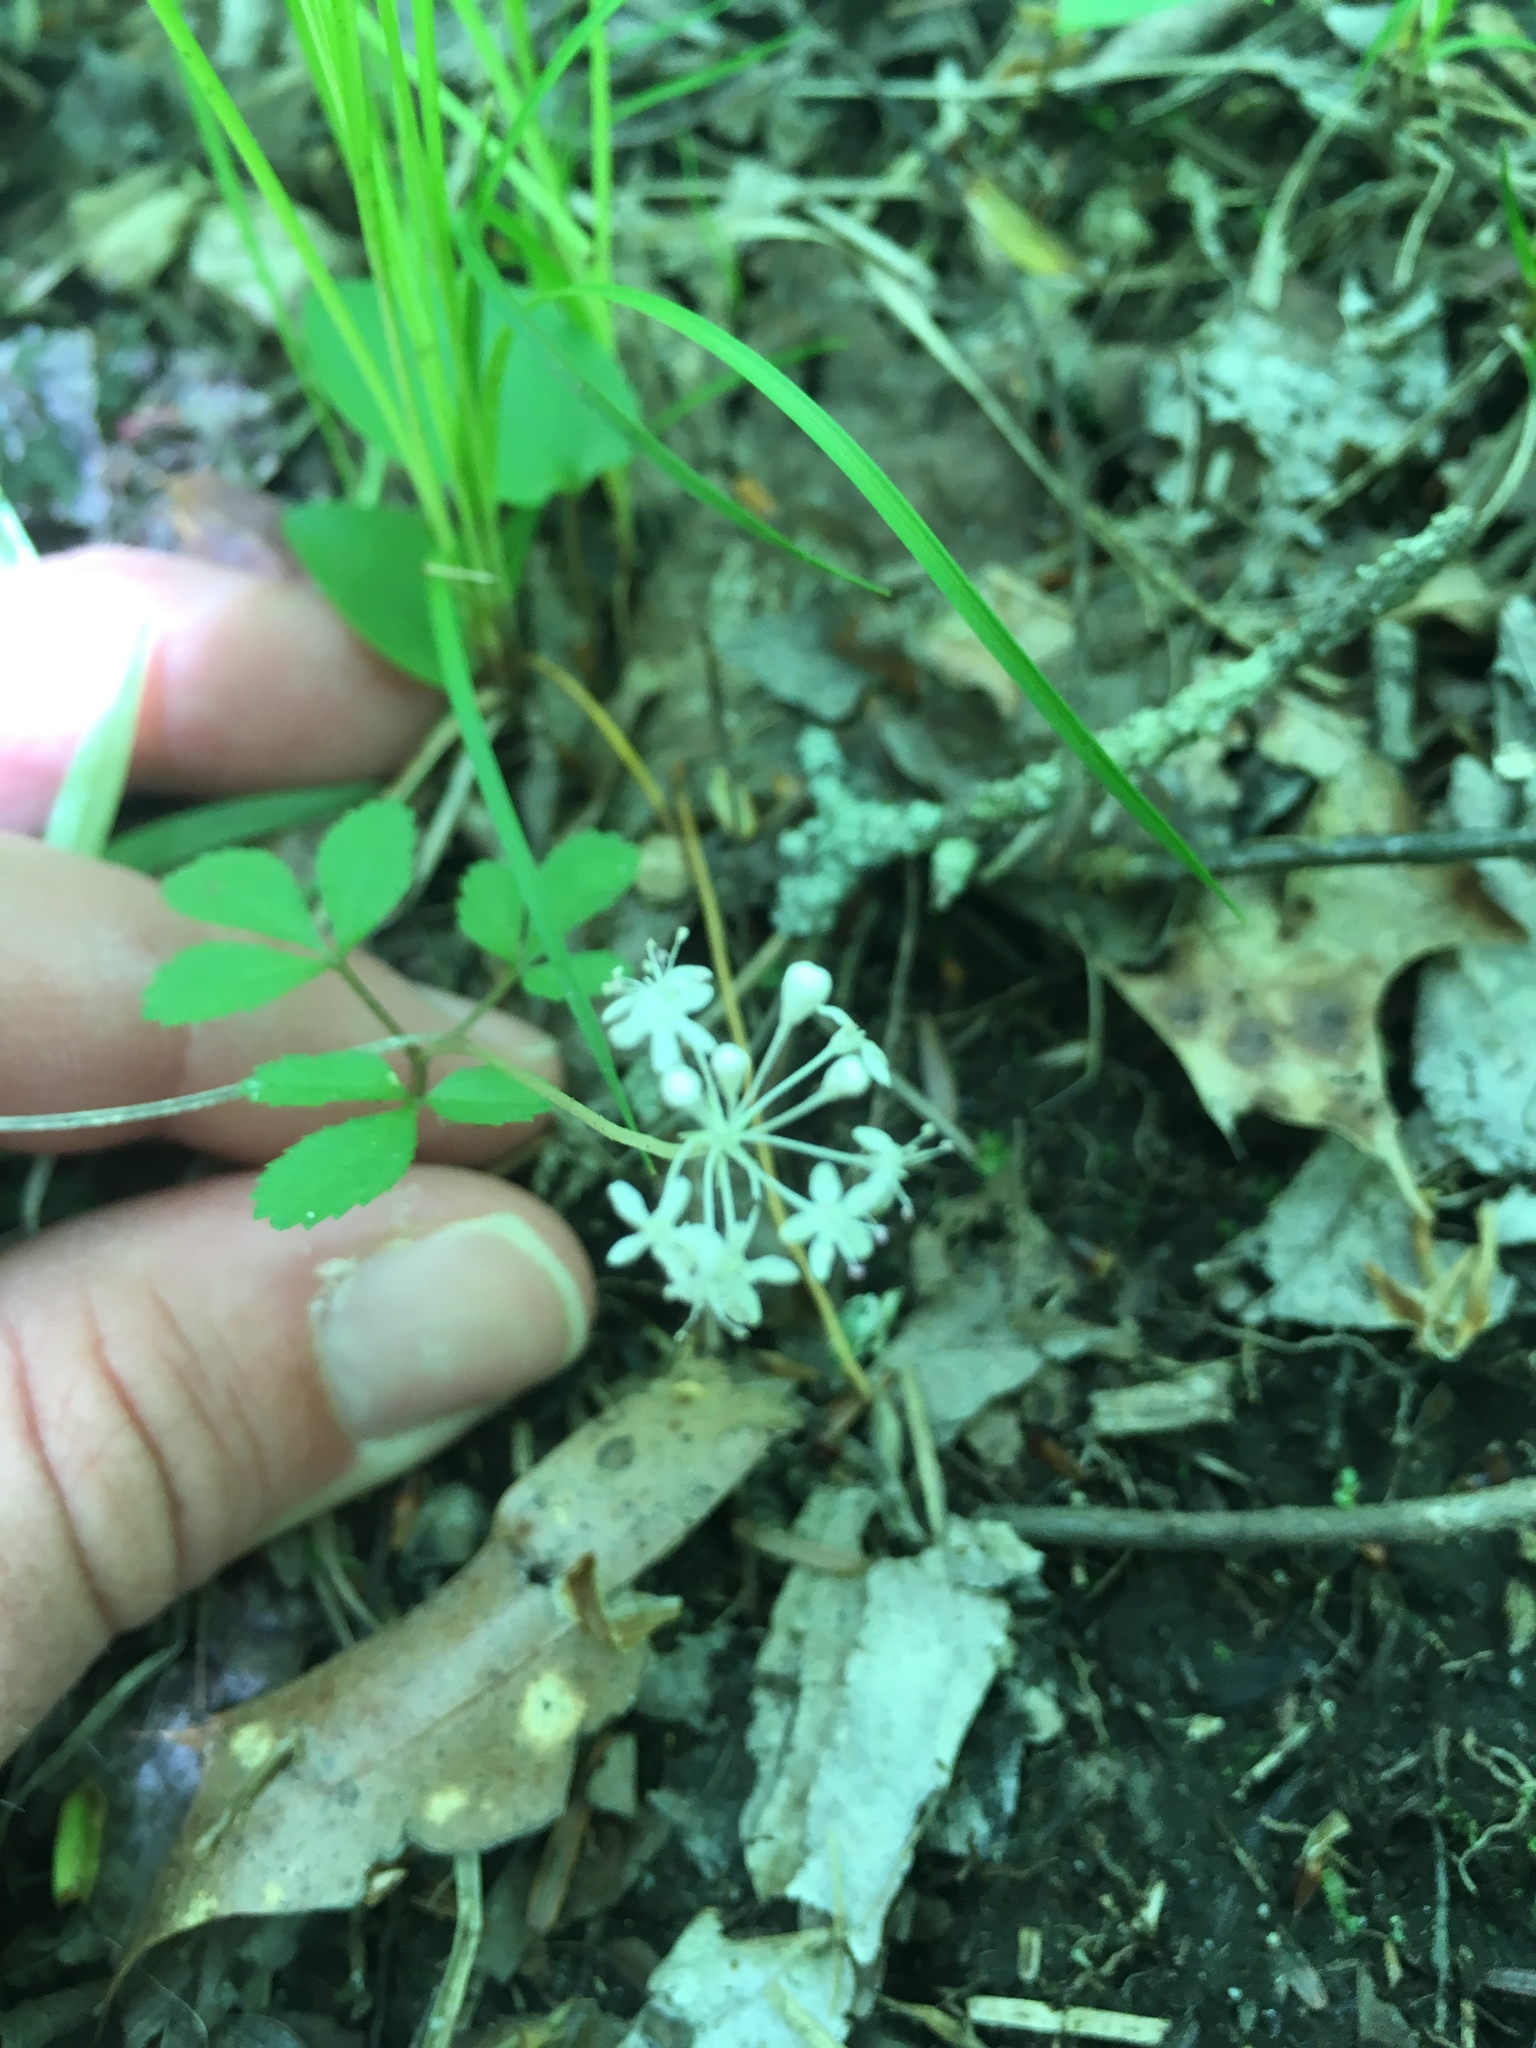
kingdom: Plantae
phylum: Tracheophyta
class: Magnoliopsida
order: Apiales
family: Araliaceae
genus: Panax
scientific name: Panax trifolius
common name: Dwarf ginseng
